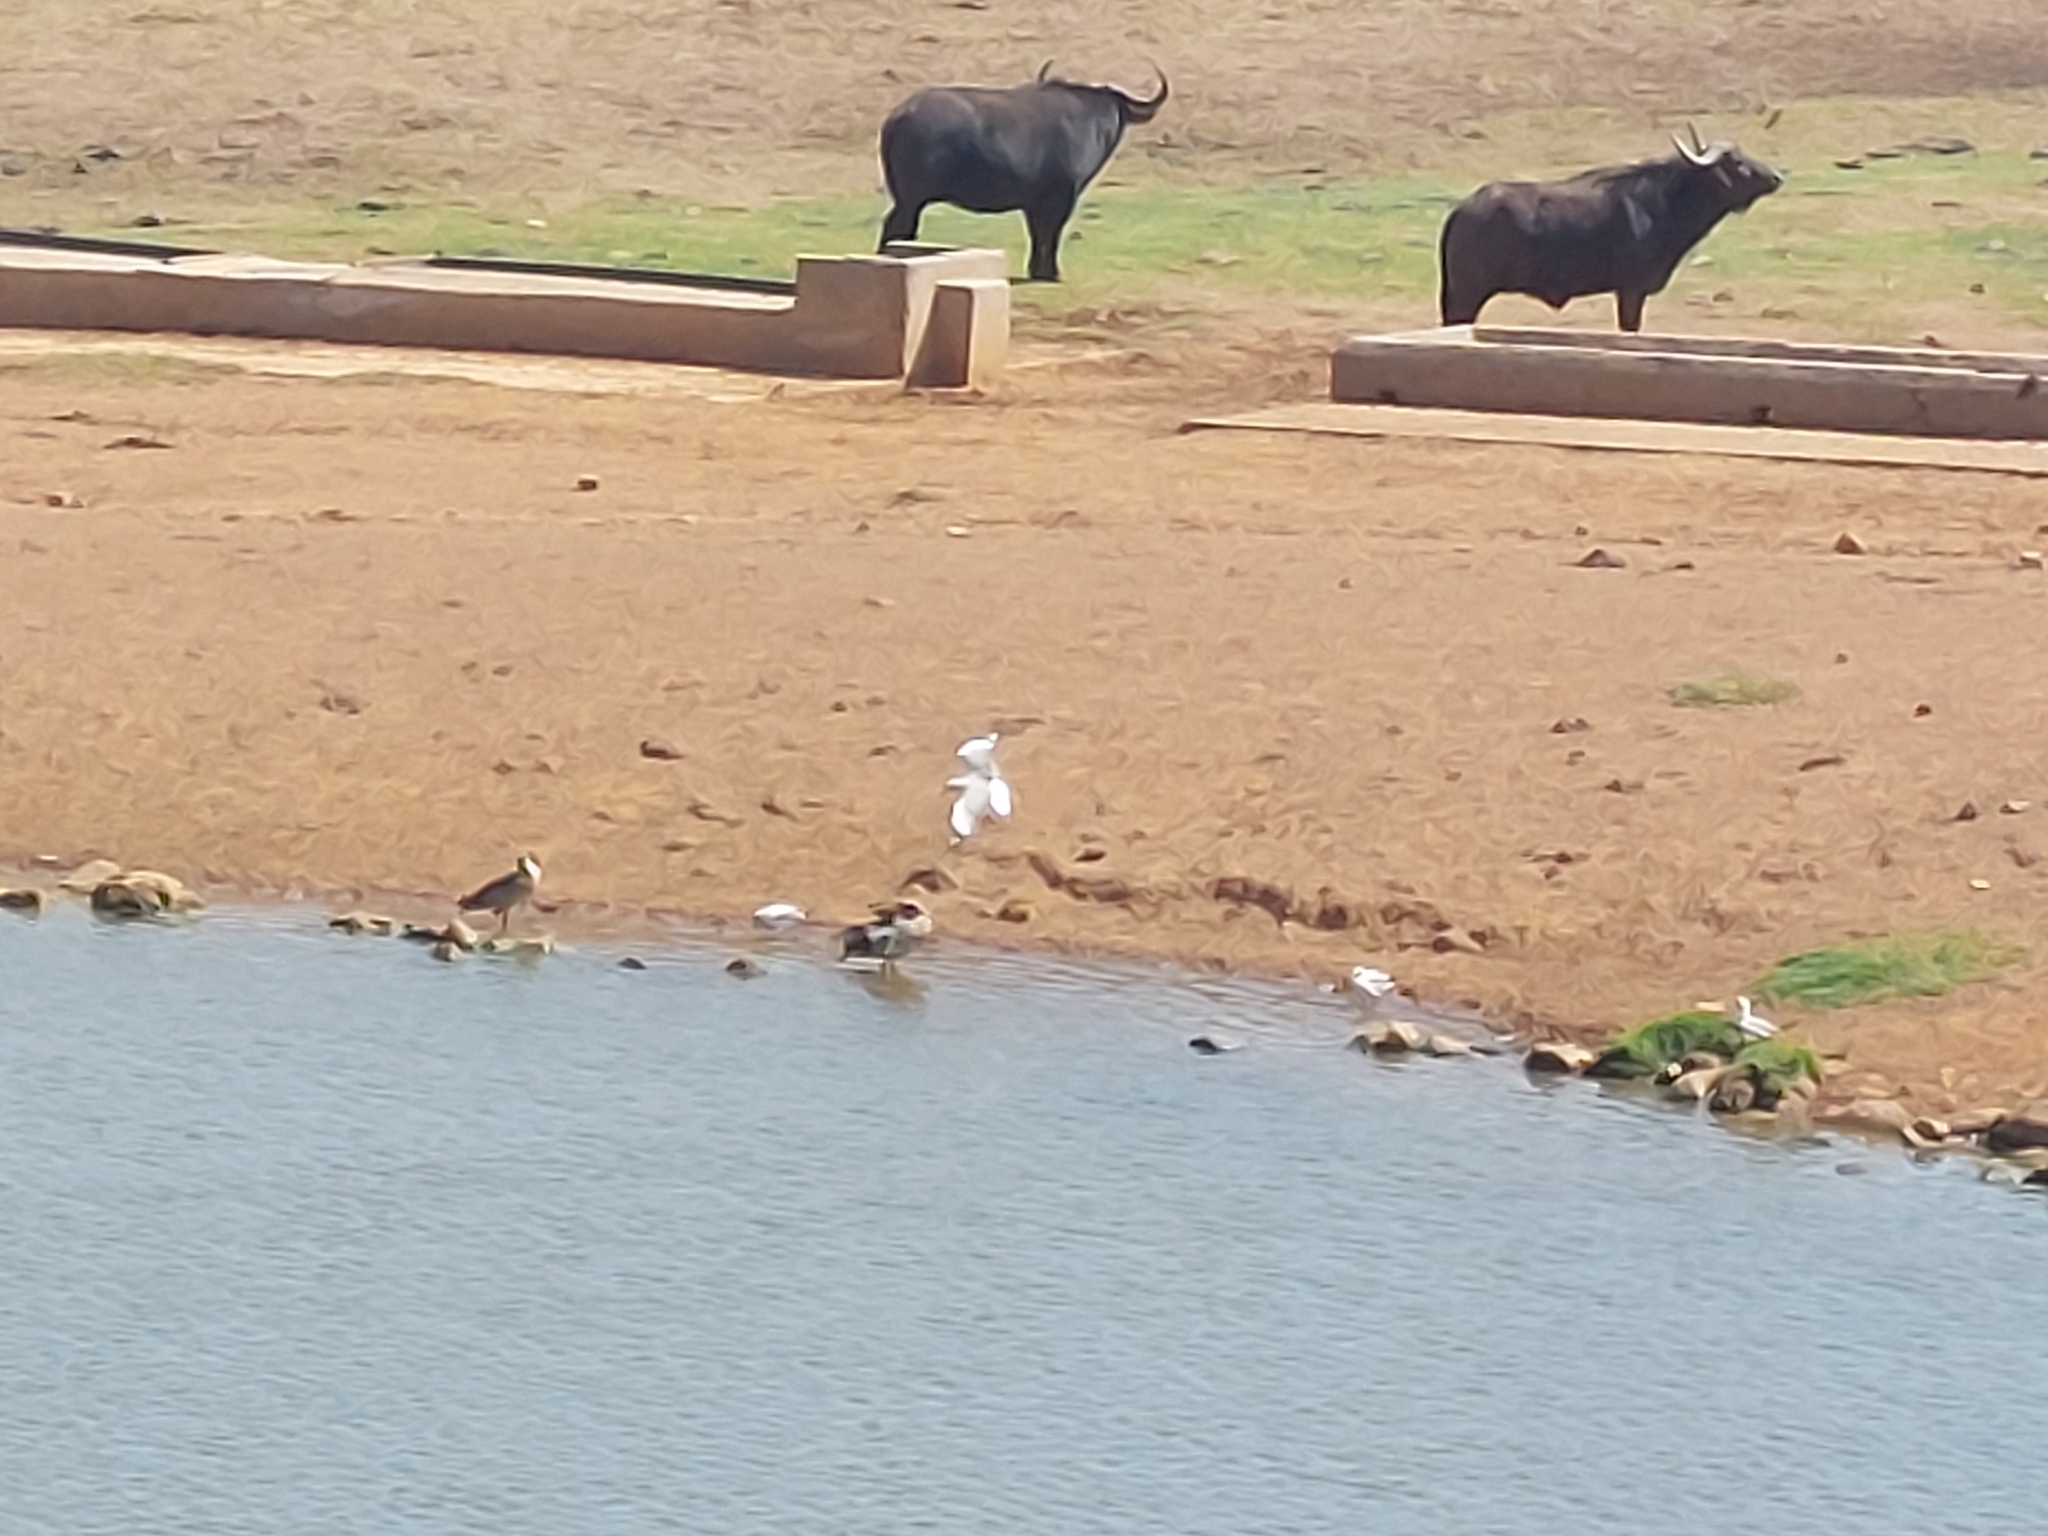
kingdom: Animalia
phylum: Chordata
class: Aves
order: Charadriiformes
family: Laridae
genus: Chroicocephalus
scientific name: Chroicocephalus cirrocephalus
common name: Grey-headed gull
